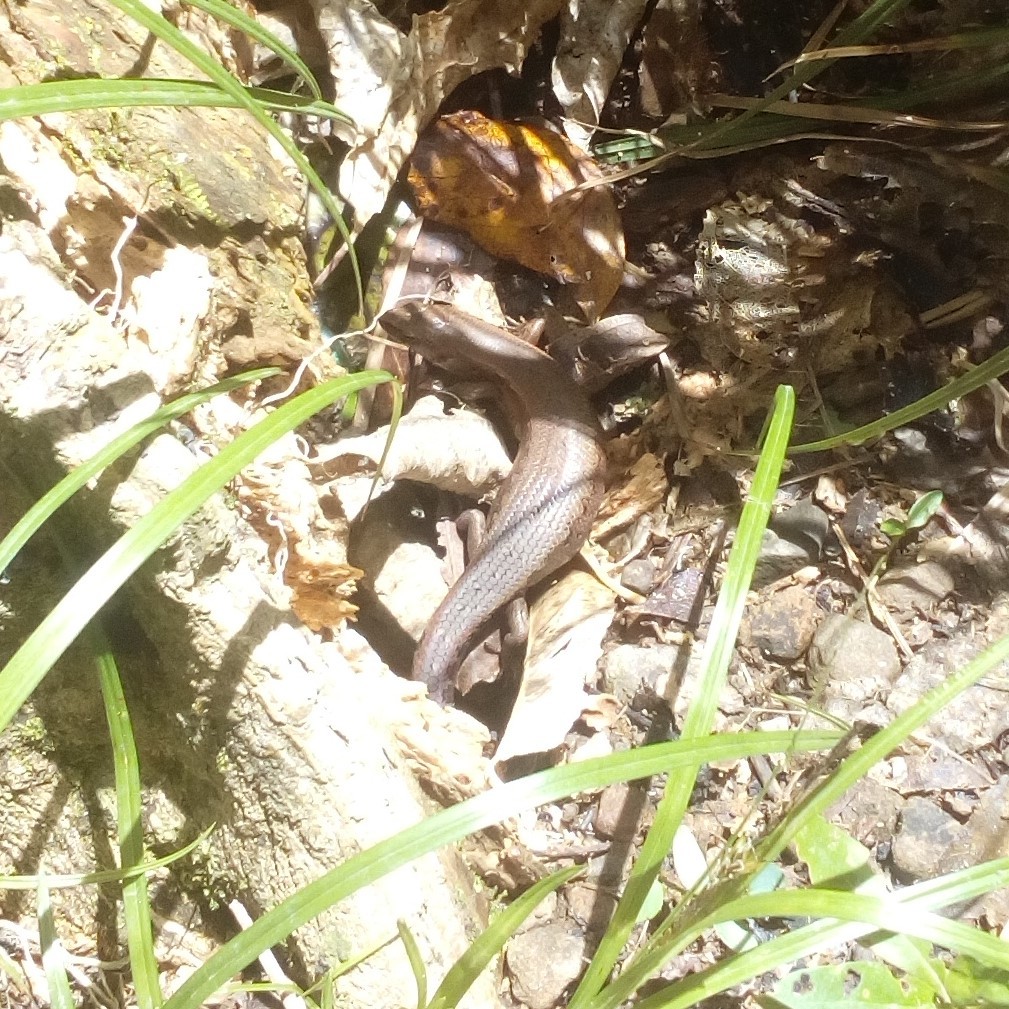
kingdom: Animalia
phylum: Chordata
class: Squamata
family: Scincidae
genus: Oligosoma
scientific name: Oligosoma ornatum
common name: Gray's ornate skink
